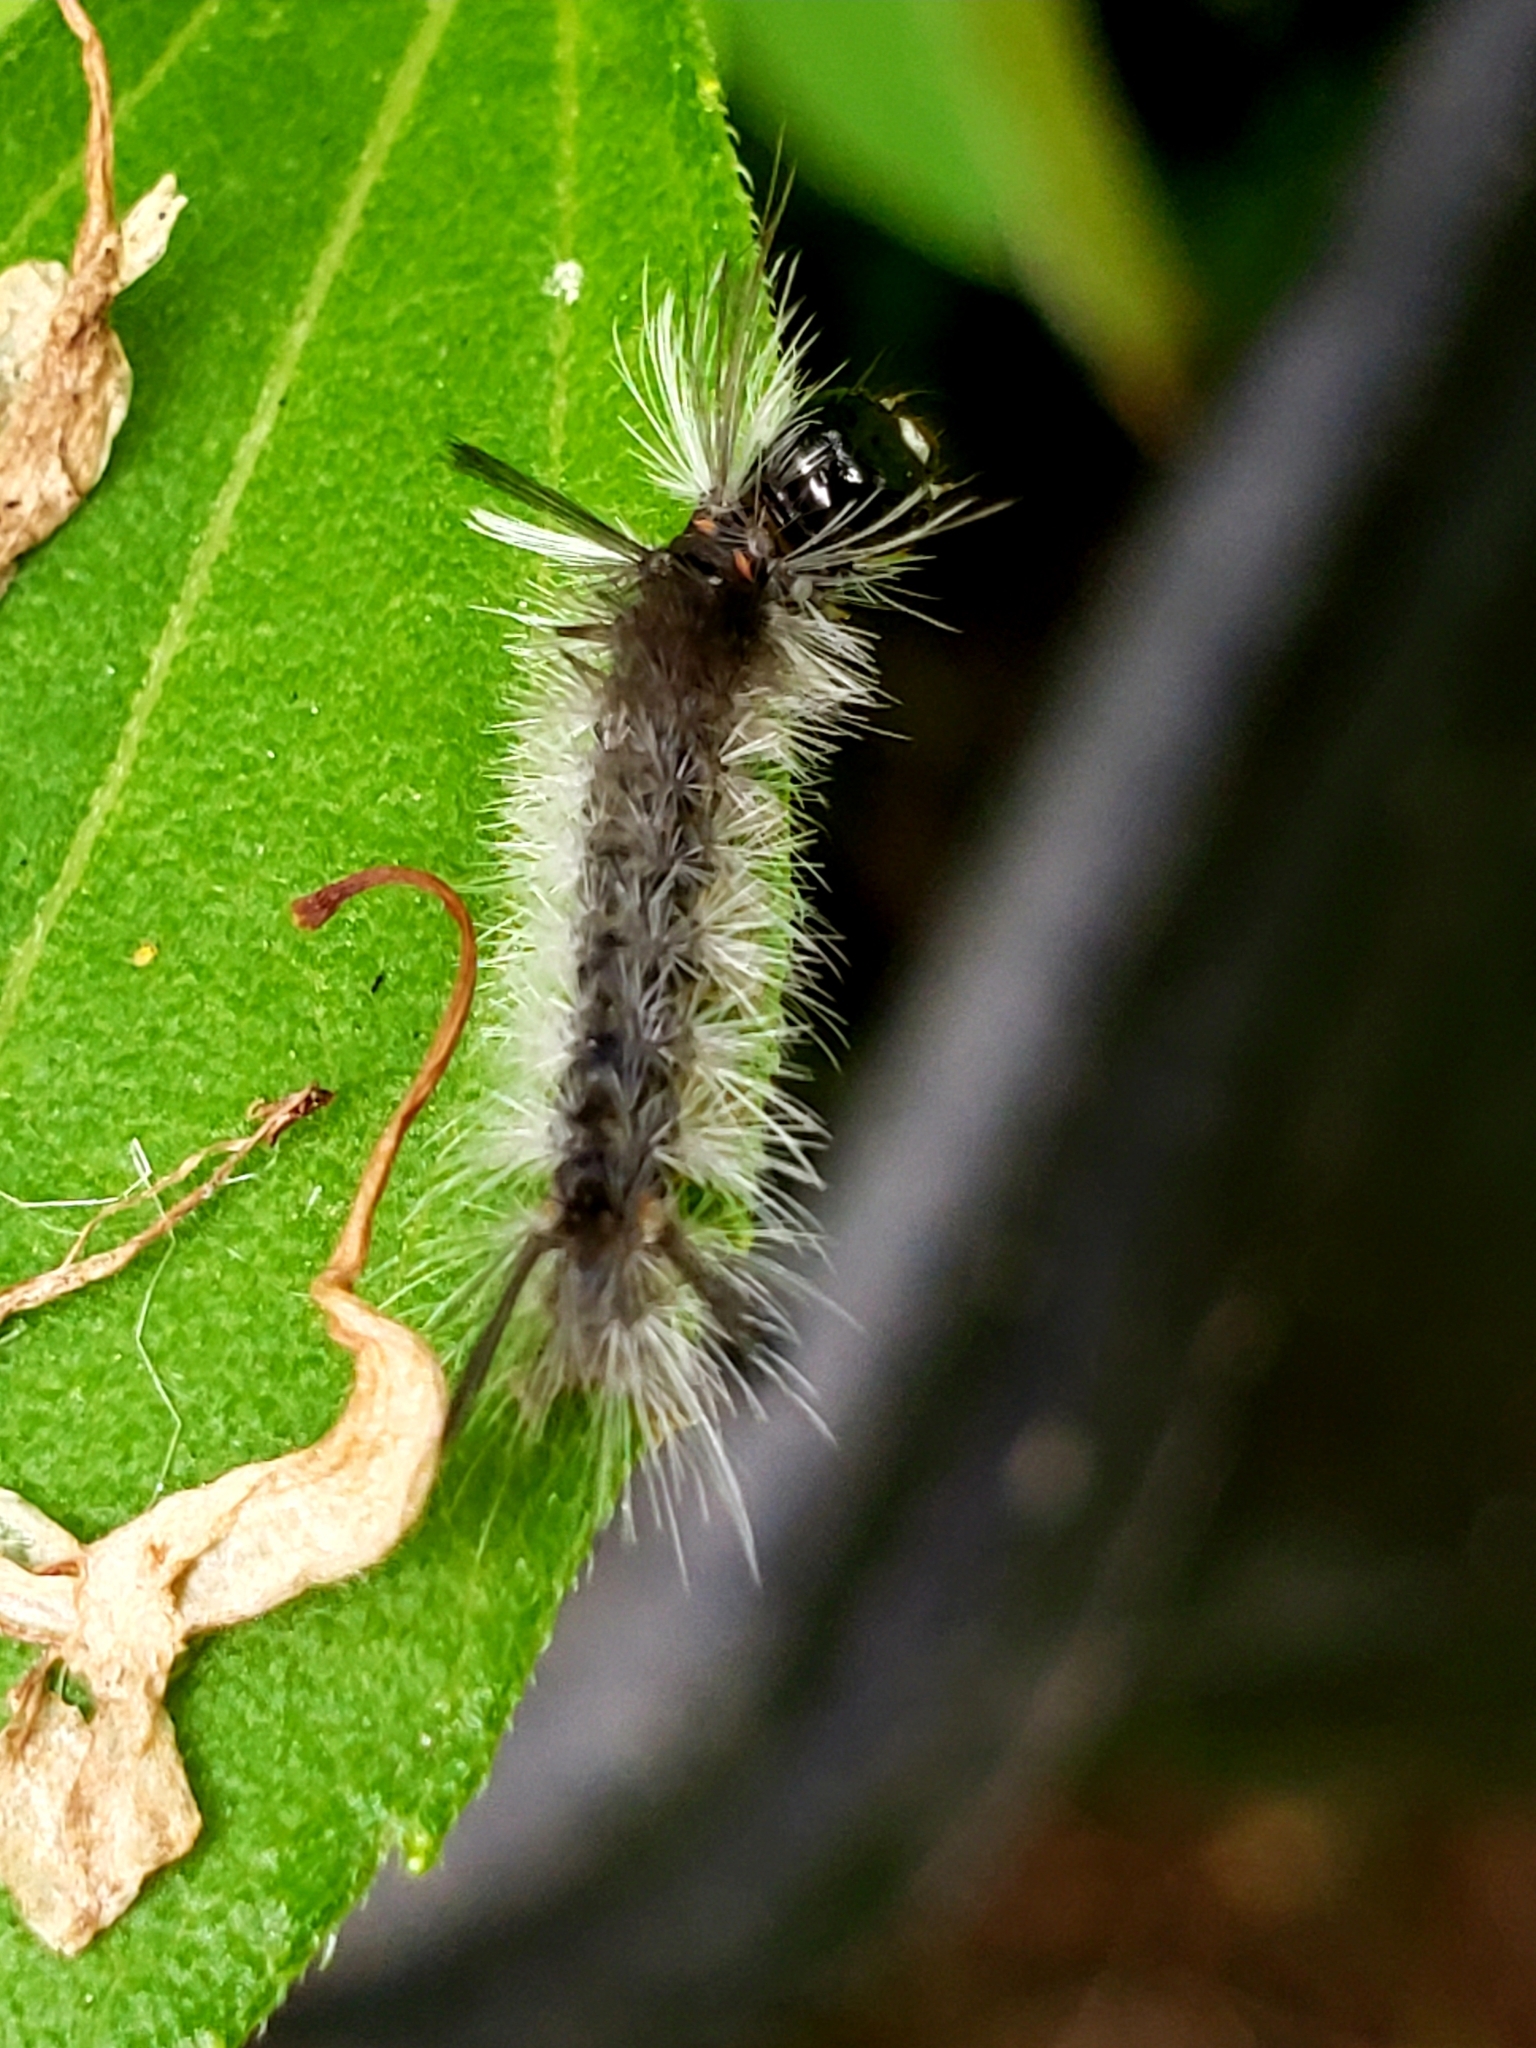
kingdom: Animalia
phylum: Arthropoda
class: Insecta
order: Lepidoptera
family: Erebidae
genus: Halysidota
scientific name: Halysidota tessellaris
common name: Banded tussock moth
